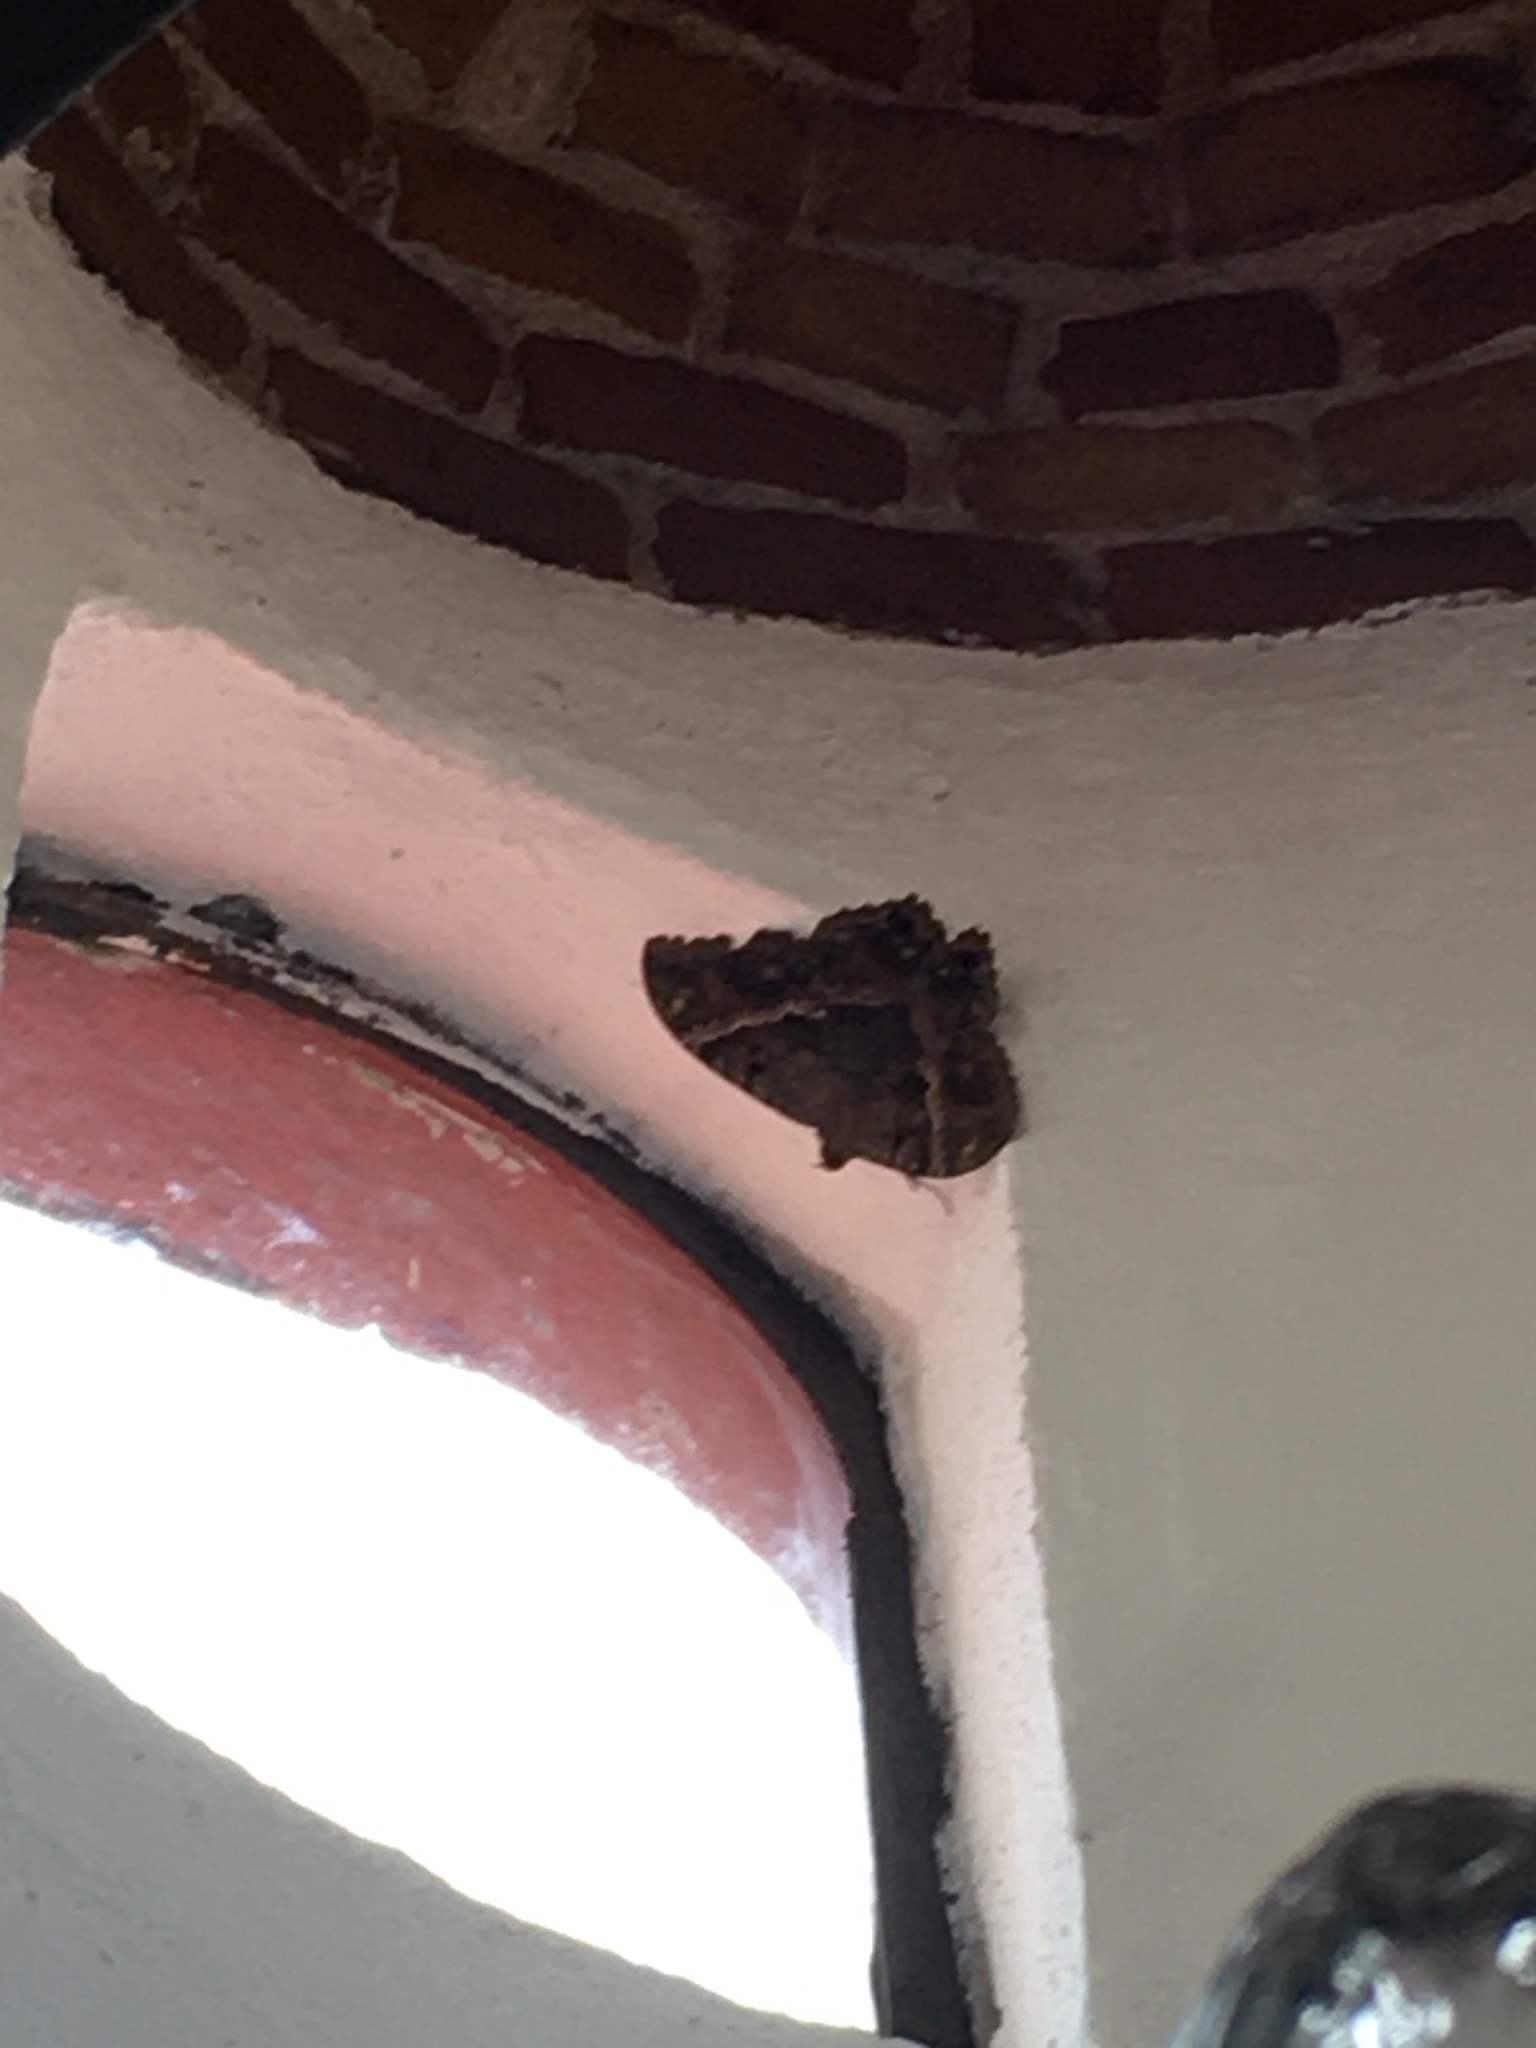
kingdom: Animalia
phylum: Arthropoda
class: Insecta
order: Lepidoptera
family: Erebidae
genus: Ascalapha
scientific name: Ascalapha odorata
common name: Black witch
